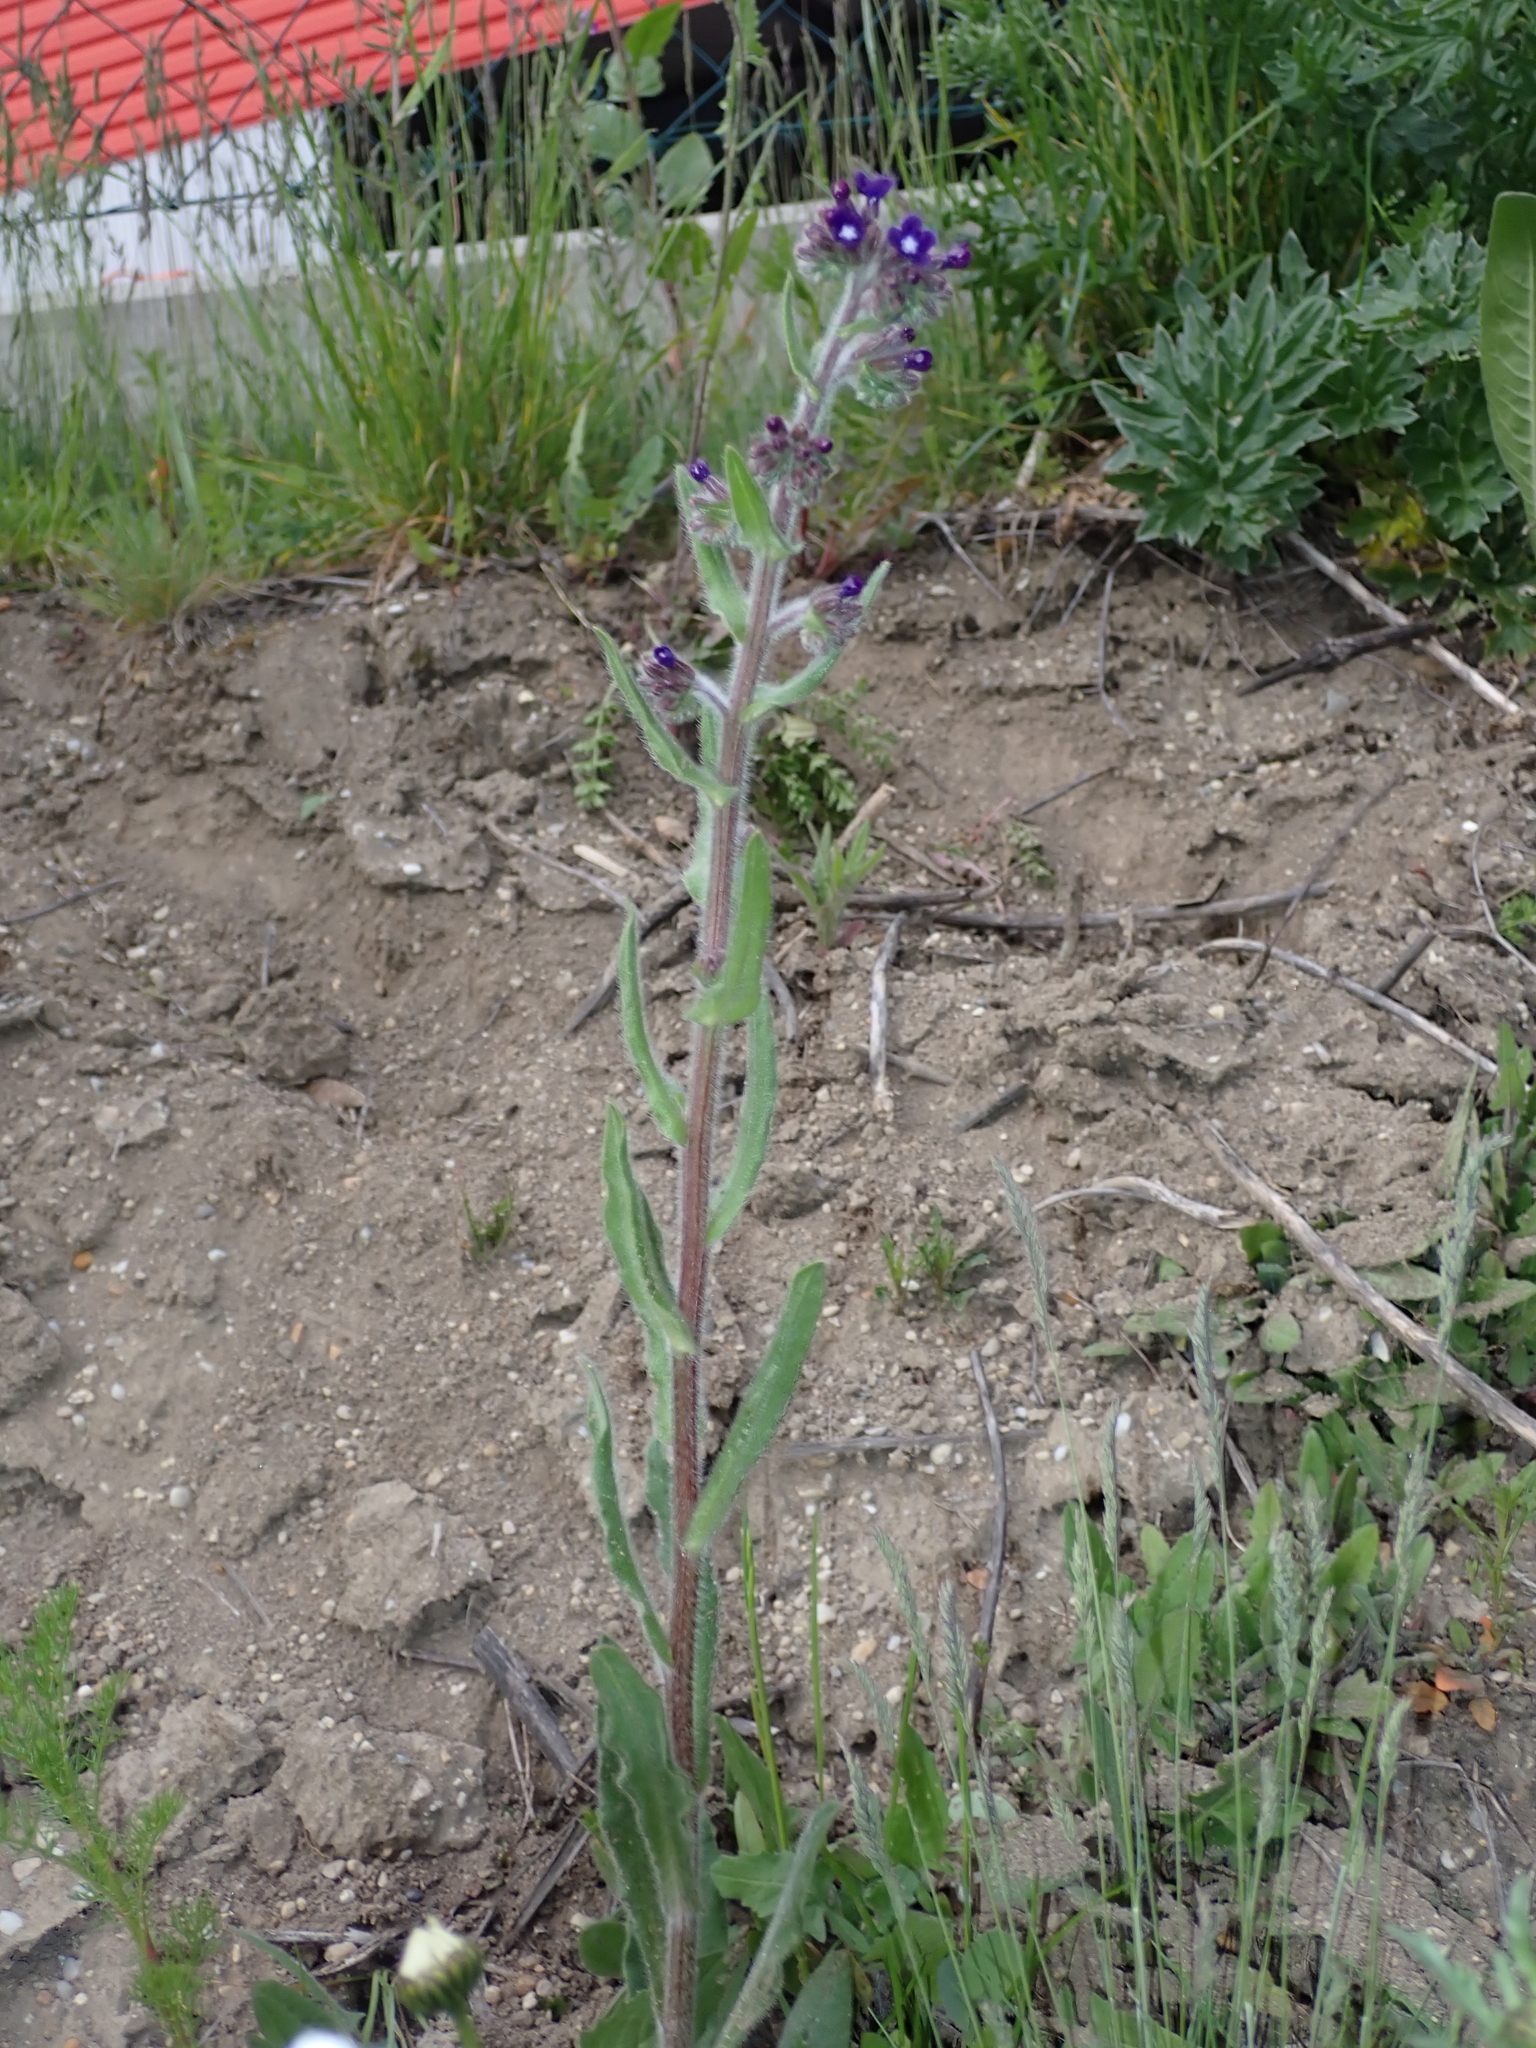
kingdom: Plantae
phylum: Tracheophyta
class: Magnoliopsida
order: Boraginales
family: Boraginaceae
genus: Anchusa
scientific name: Anchusa officinalis
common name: Alkanet
